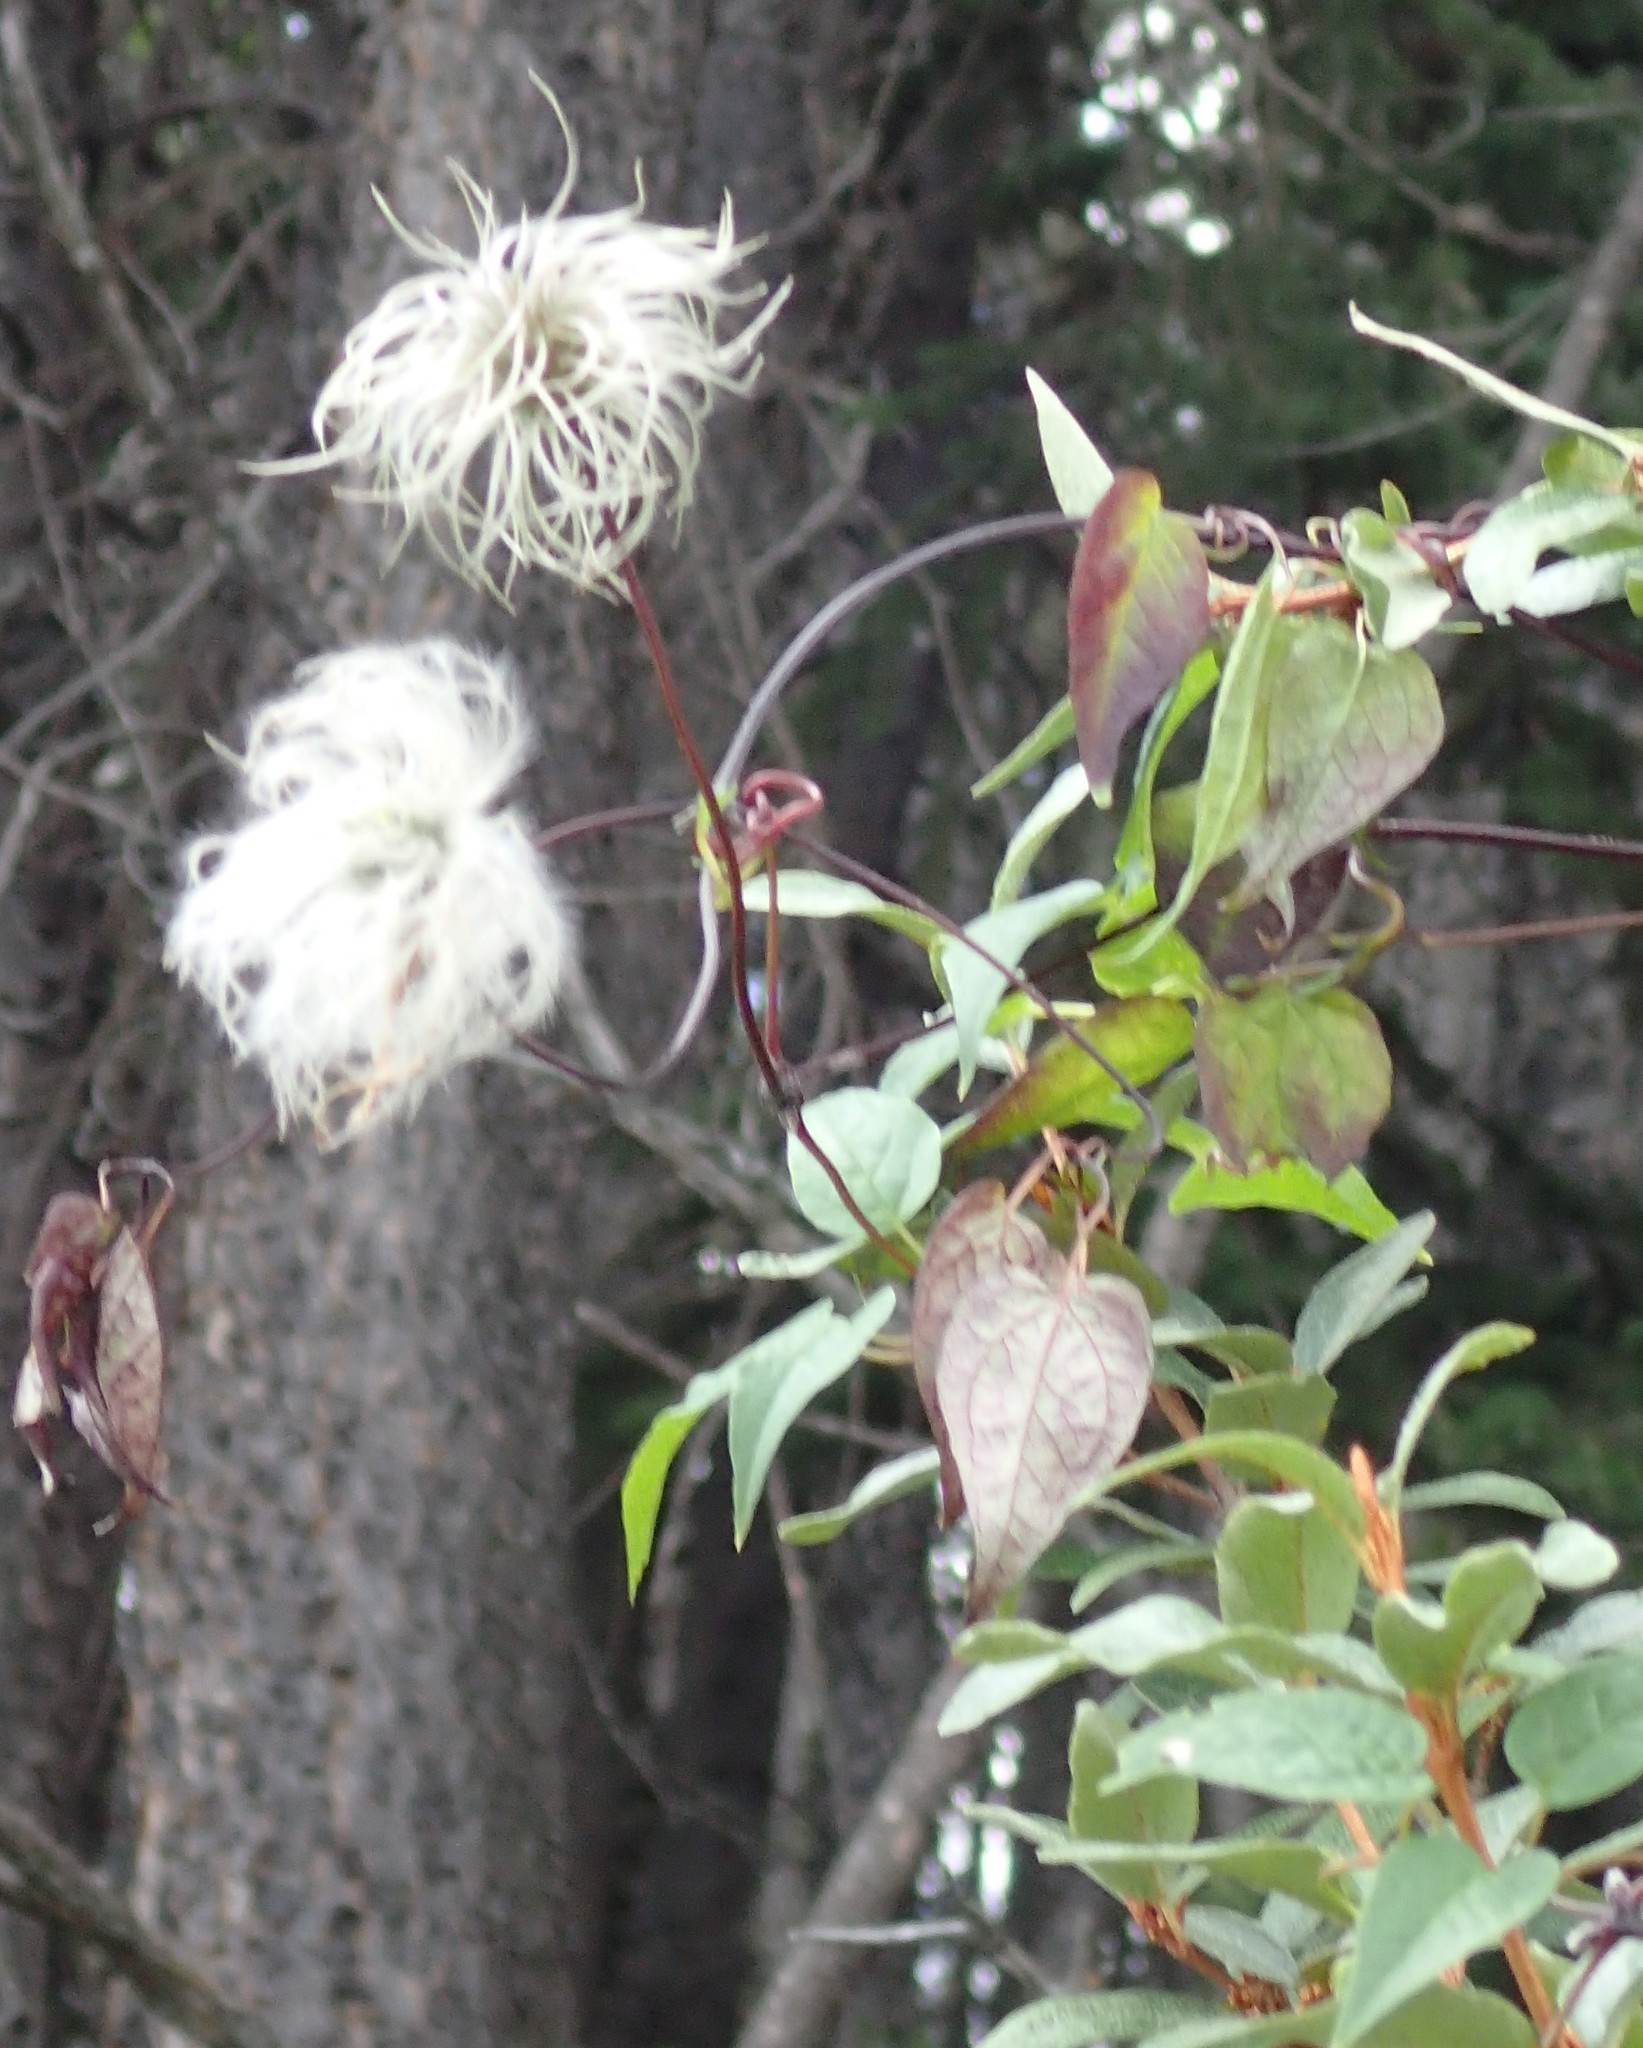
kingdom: Plantae
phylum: Tracheophyta
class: Magnoliopsida
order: Ranunculales
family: Ranunculaceae
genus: Clematis
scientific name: Clematis occidentalis
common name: Purple clematis
